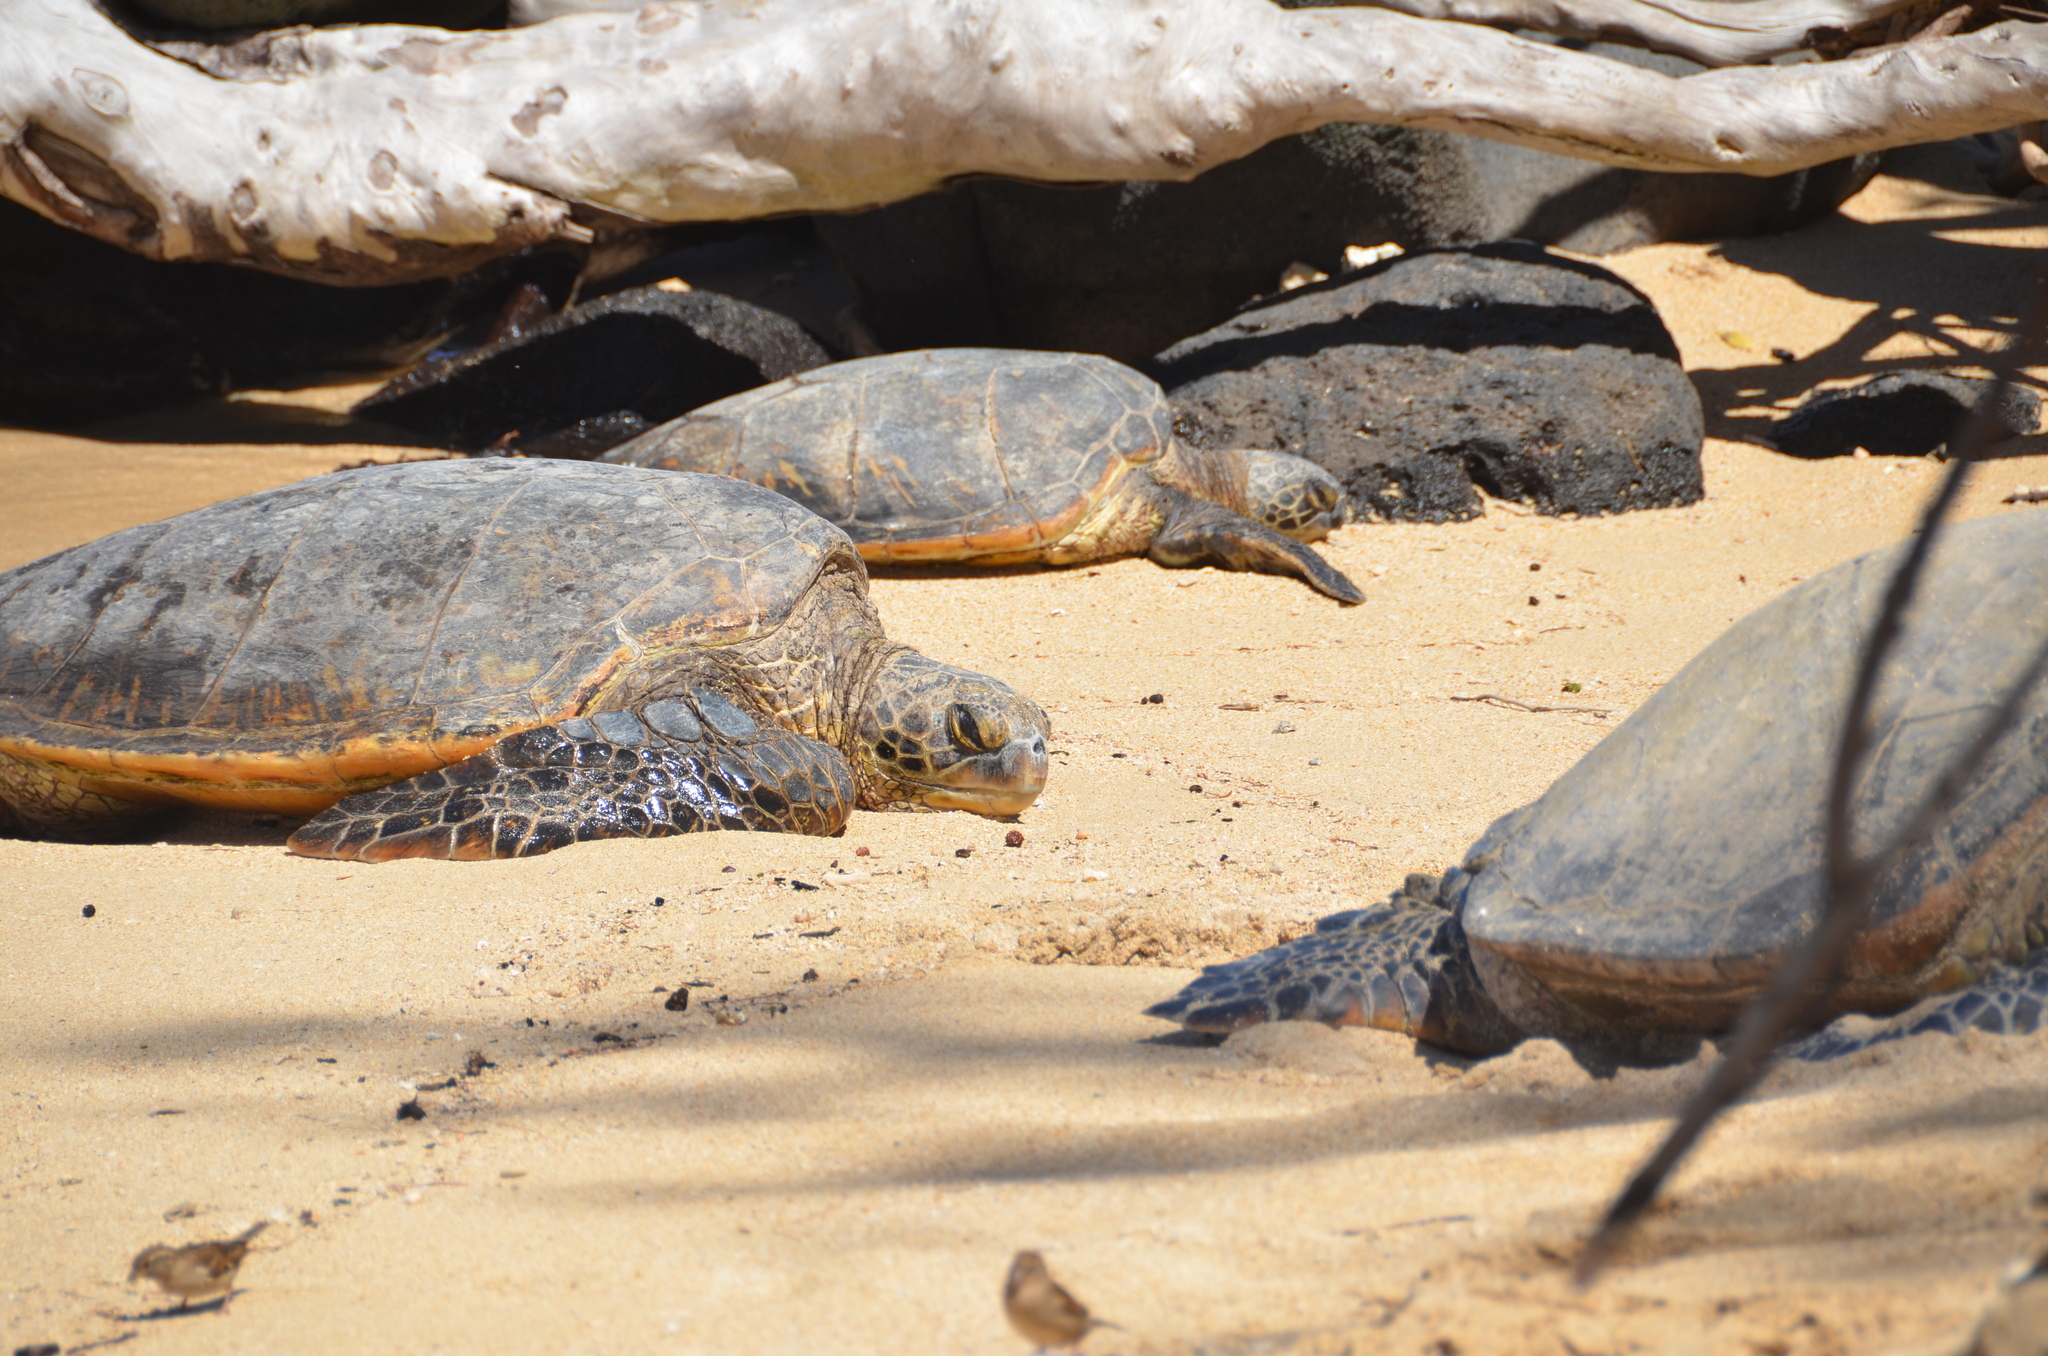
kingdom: Animalia
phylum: Chordata
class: Testudines
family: Cheloniidae
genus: Chelonia
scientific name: Chelonia mydas
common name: Green turtle
